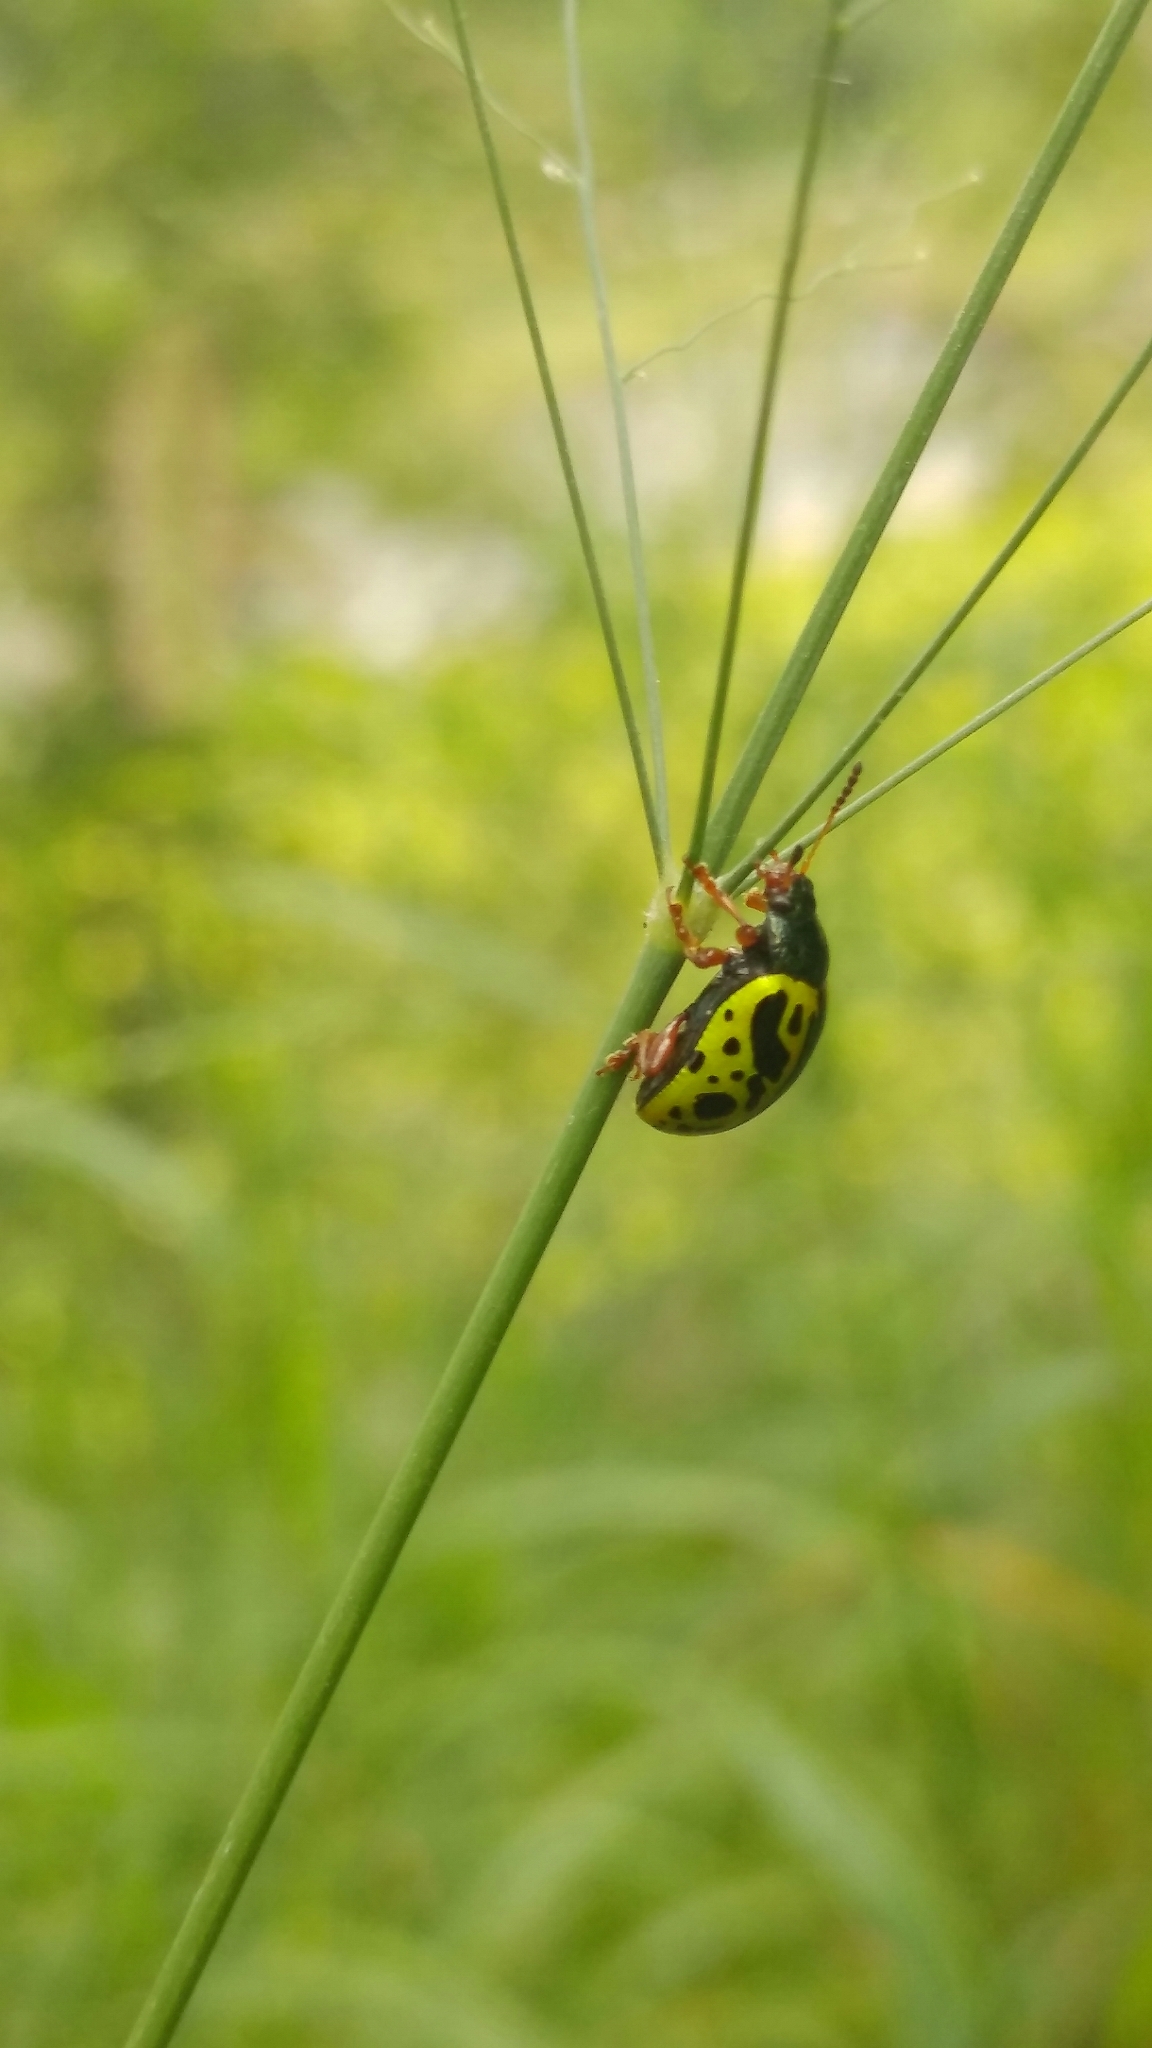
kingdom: Animalia
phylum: Arthropoda
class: Insecta
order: Coleoptera
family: Chrysomelidae
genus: Calligrapha
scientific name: Calligrapha fulvipes
